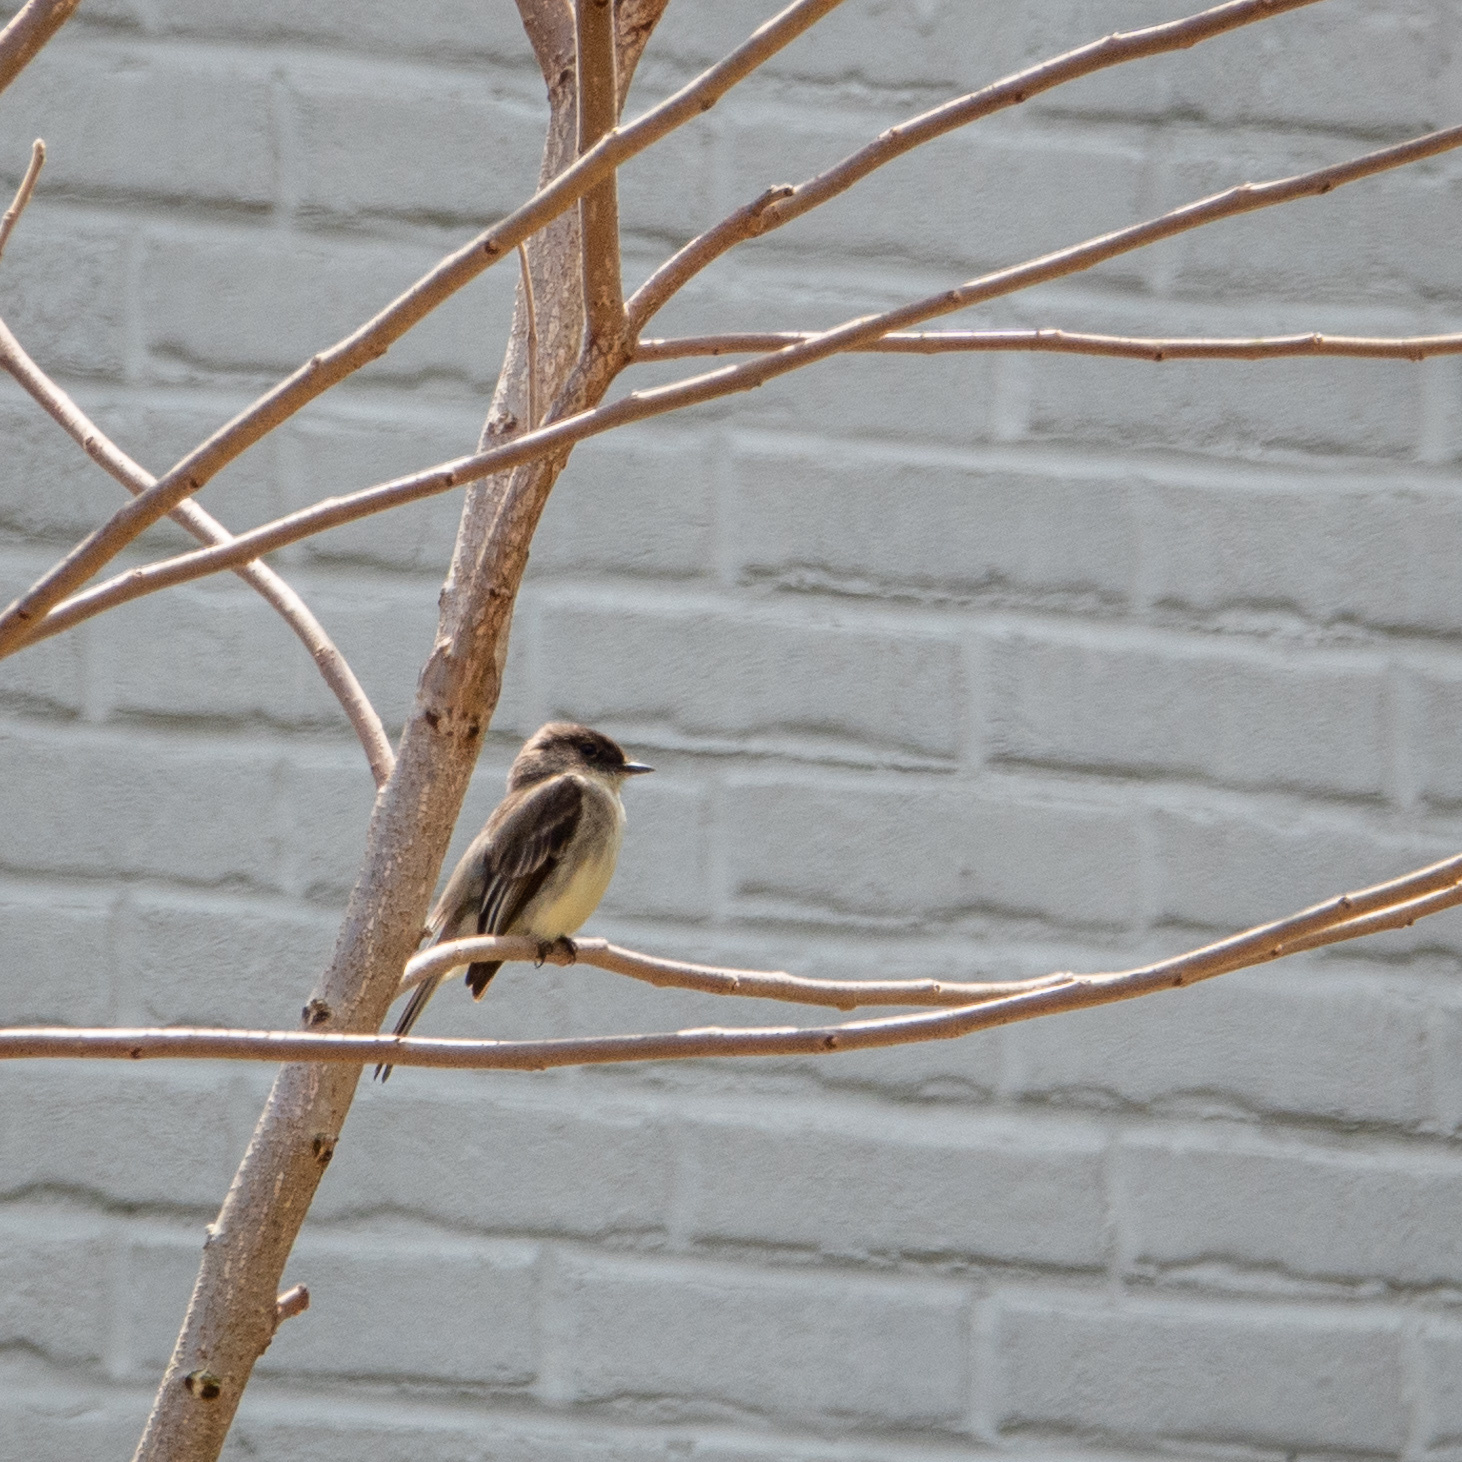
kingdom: Animalia
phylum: Chordata
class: Aves
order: Passeriformes
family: Tyrannidae
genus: Sayornis
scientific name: Sayornis phoebe
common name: Eastern phoebe
